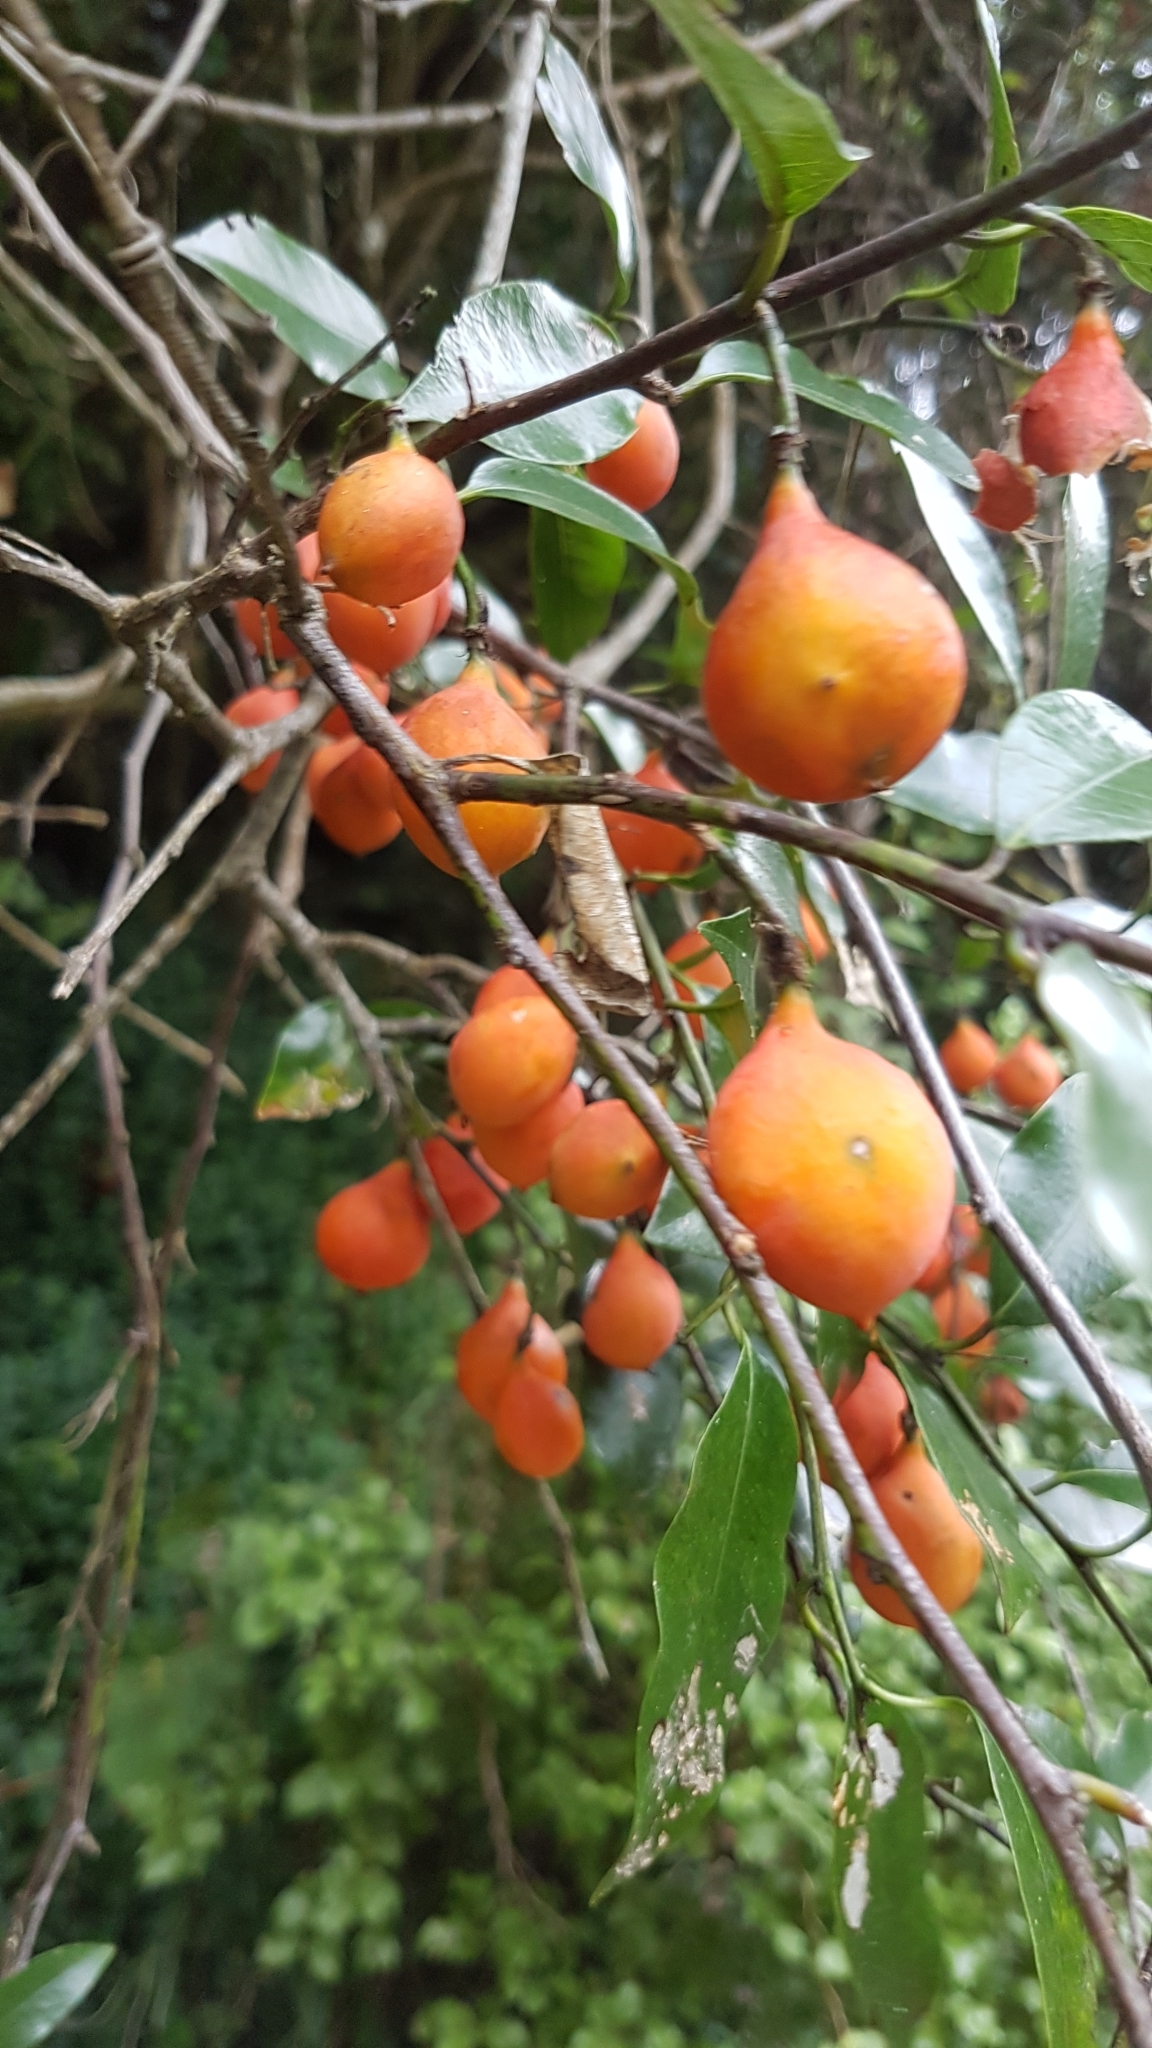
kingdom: Plantae
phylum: Tracheophyta
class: Magnoliopsida
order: Malpighiales
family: Passifloraceae
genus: Passiflora
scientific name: Passiflora tetrandra
